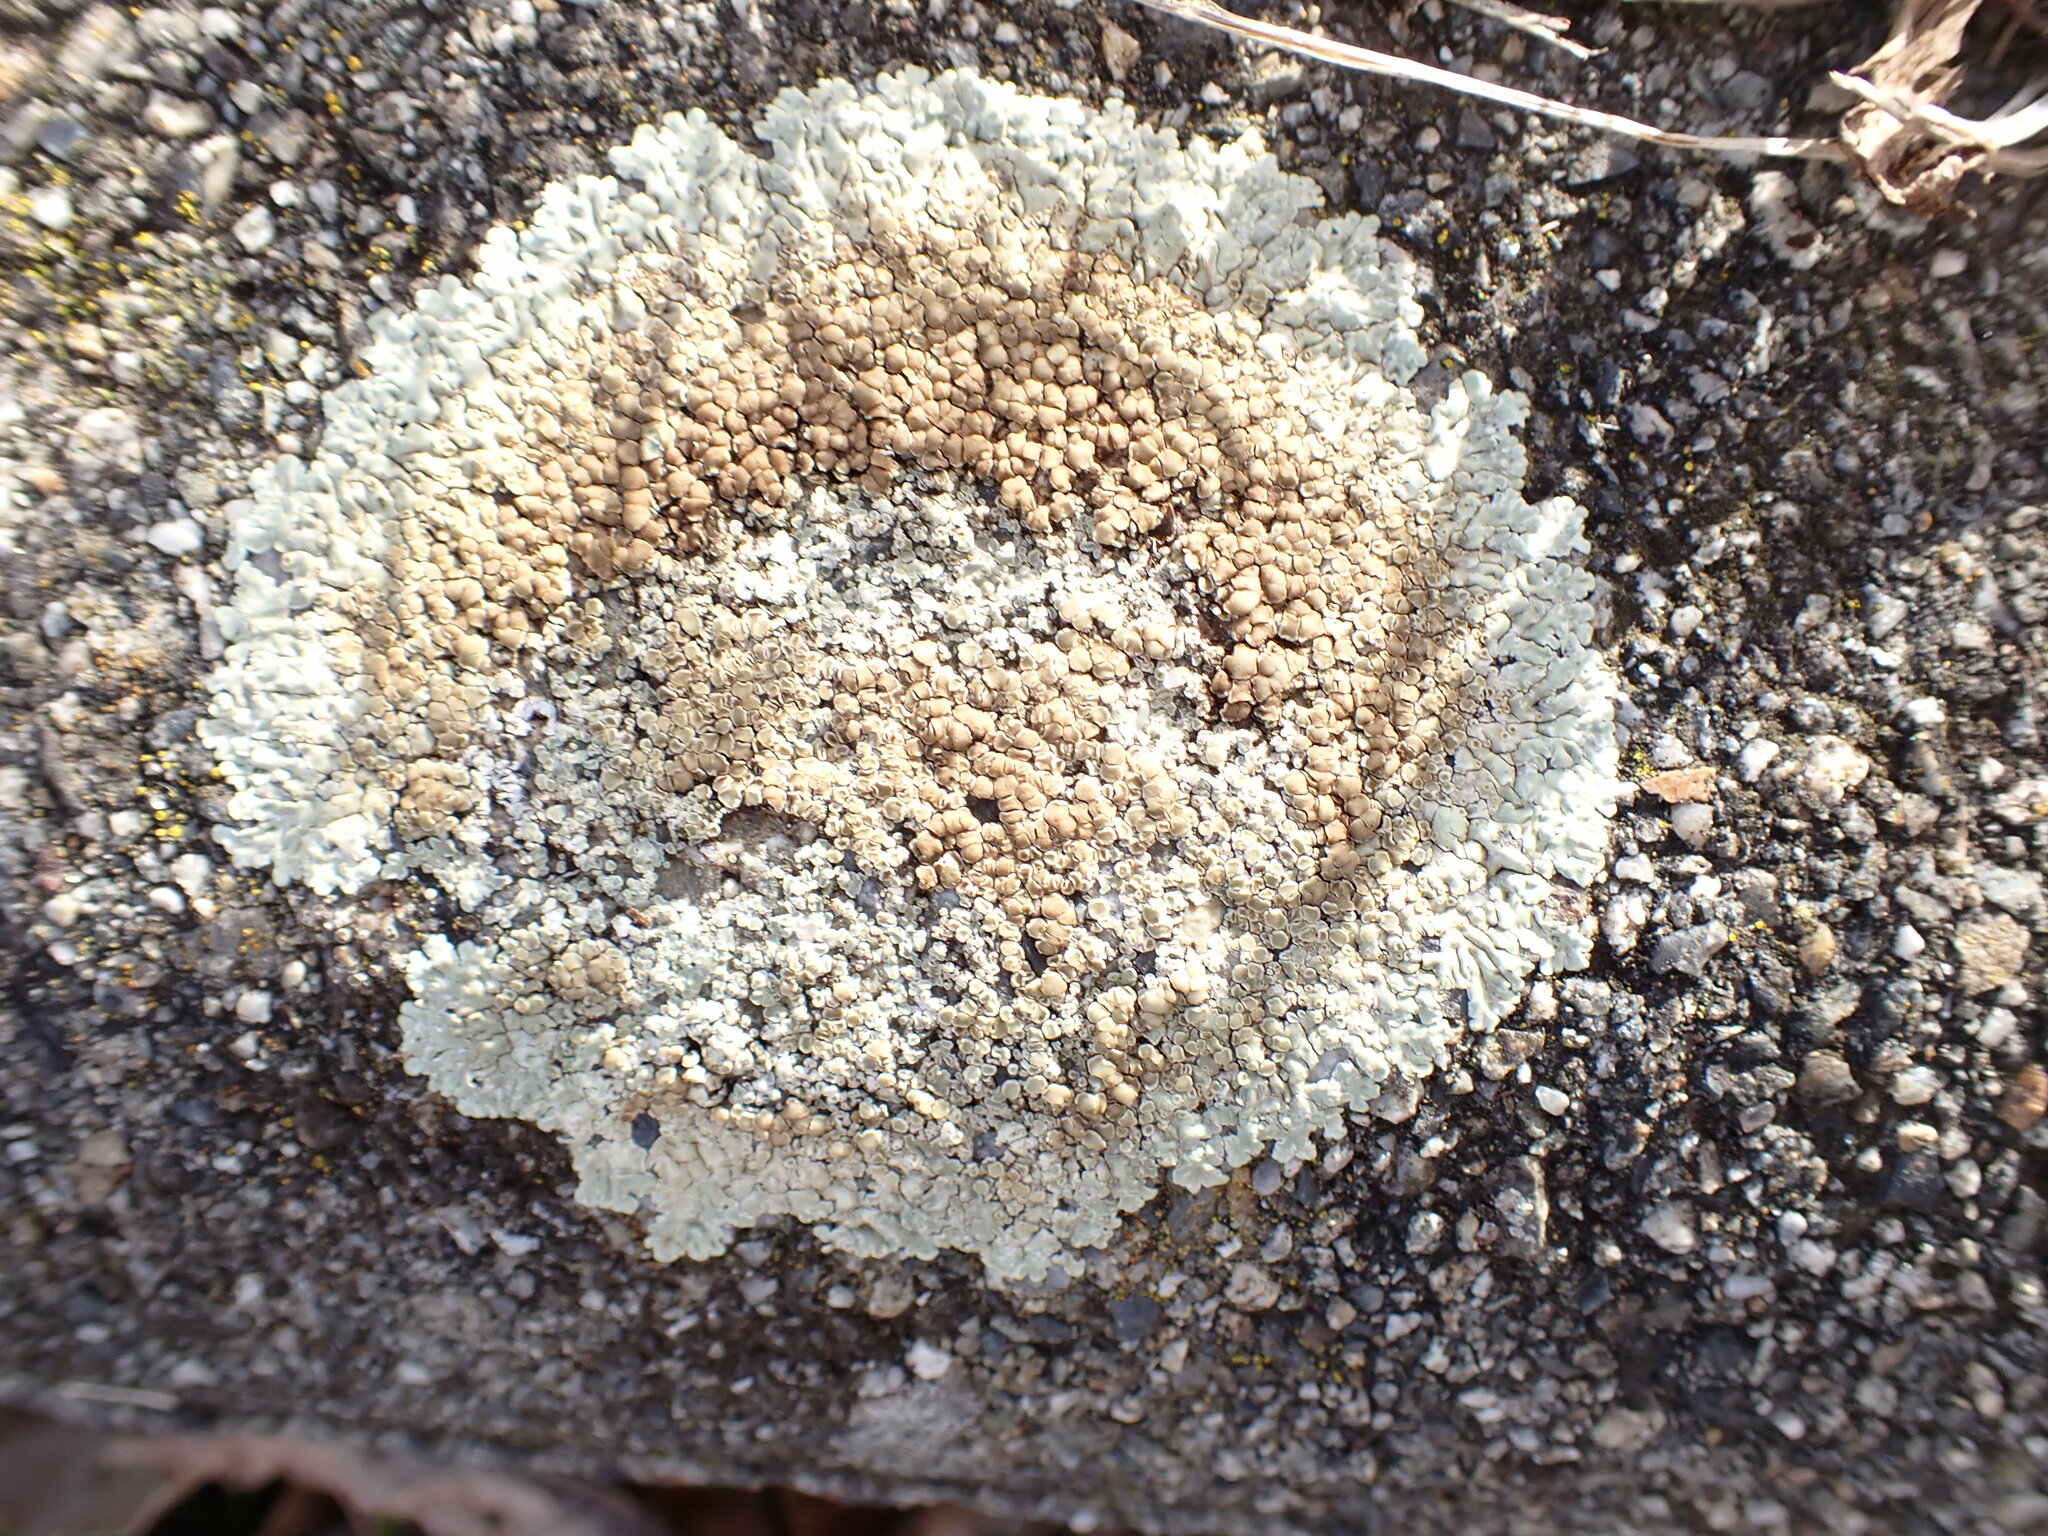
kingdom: Fungi
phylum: Ascomycota
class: Lecanoromycetes
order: Lecanorales
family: Lecanoraceae
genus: Protoparmeliopsis
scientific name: Protoparmeliopsis muralis
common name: Stonewall rim lichen
